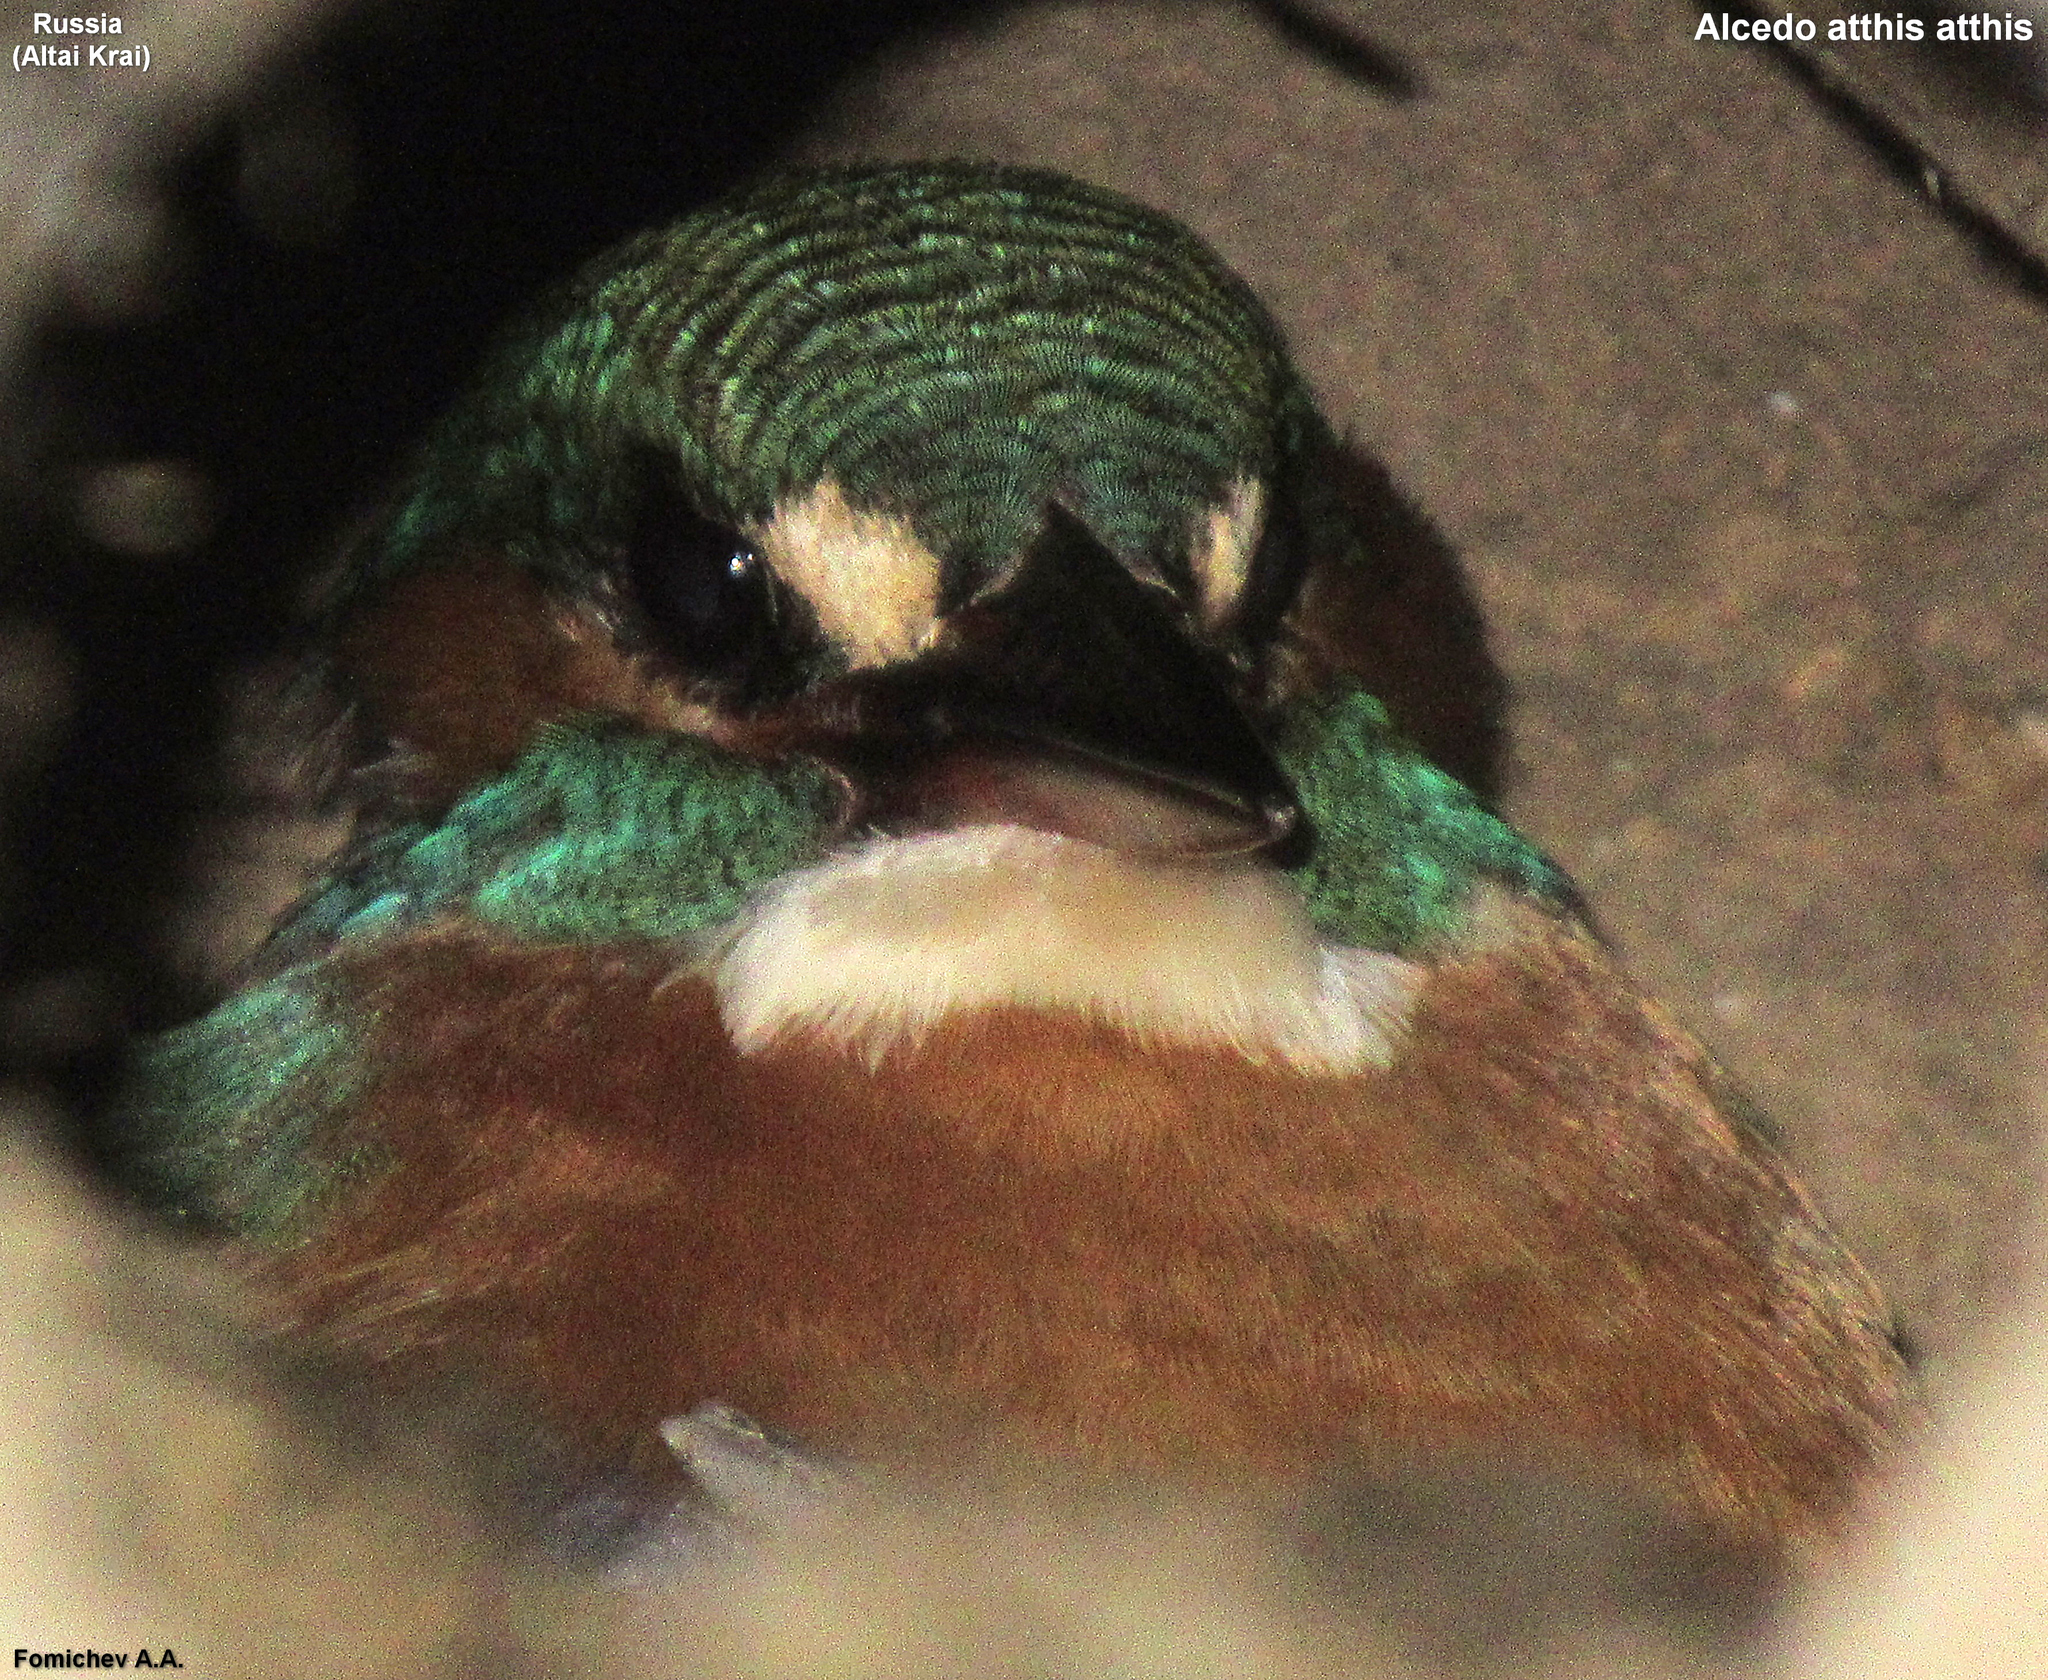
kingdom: Animalia
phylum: Chordata
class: Aves
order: Coraciiformes
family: Alcedinidae
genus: Alcedo
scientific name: Alcedo atthis
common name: Common kingfisher
